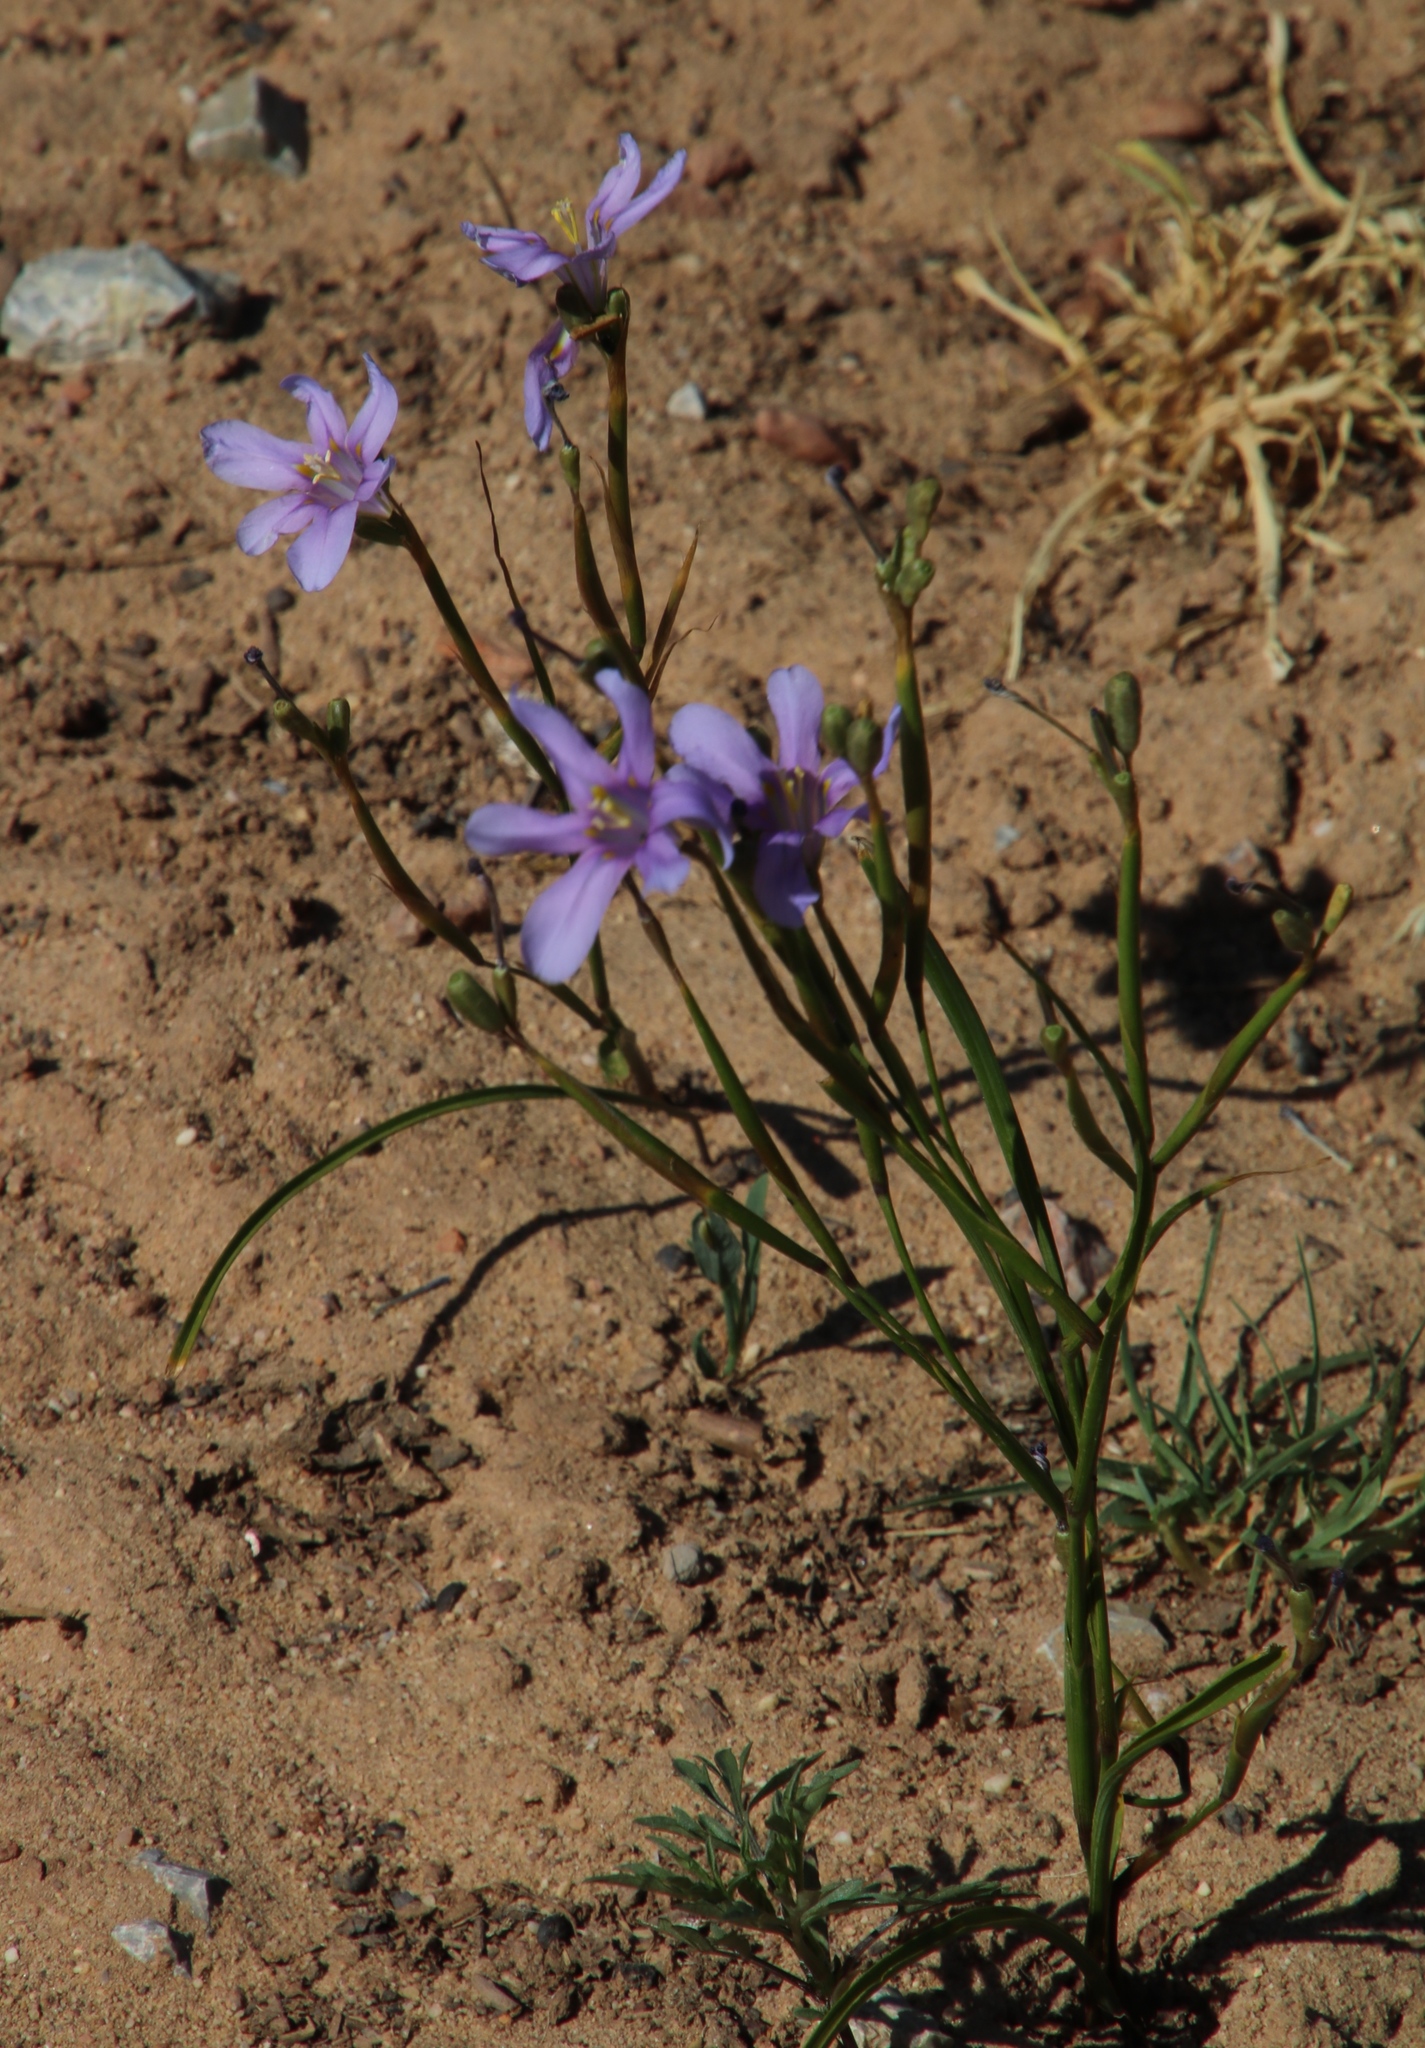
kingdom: Plantae
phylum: Tracheophyta
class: Liliopsida
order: Asparagales
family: Iridaceae
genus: Moraea
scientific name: Moraea polyanthos
